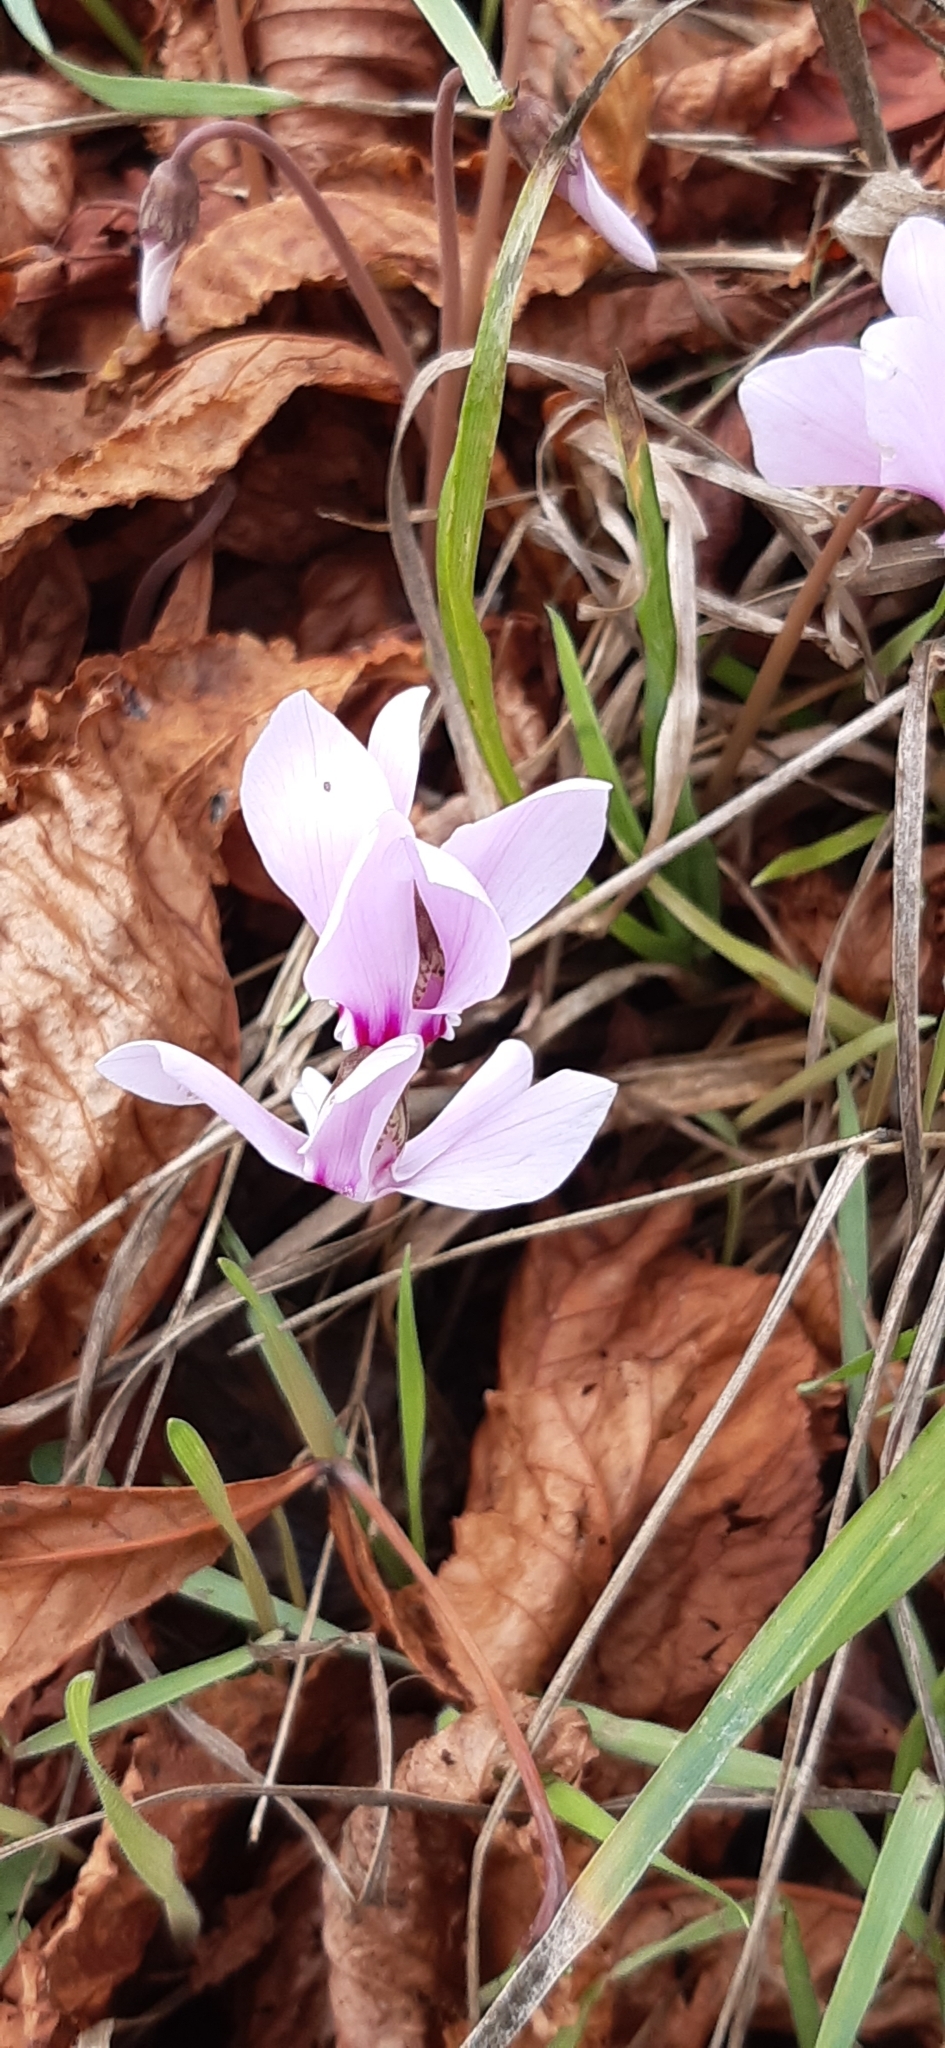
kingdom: Plantae
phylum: Tracheophyta
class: Magnoliopsida
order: Ericales
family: Primulaceae
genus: Cyclamen
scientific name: Cyclamen hederifolium
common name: Sowbread
